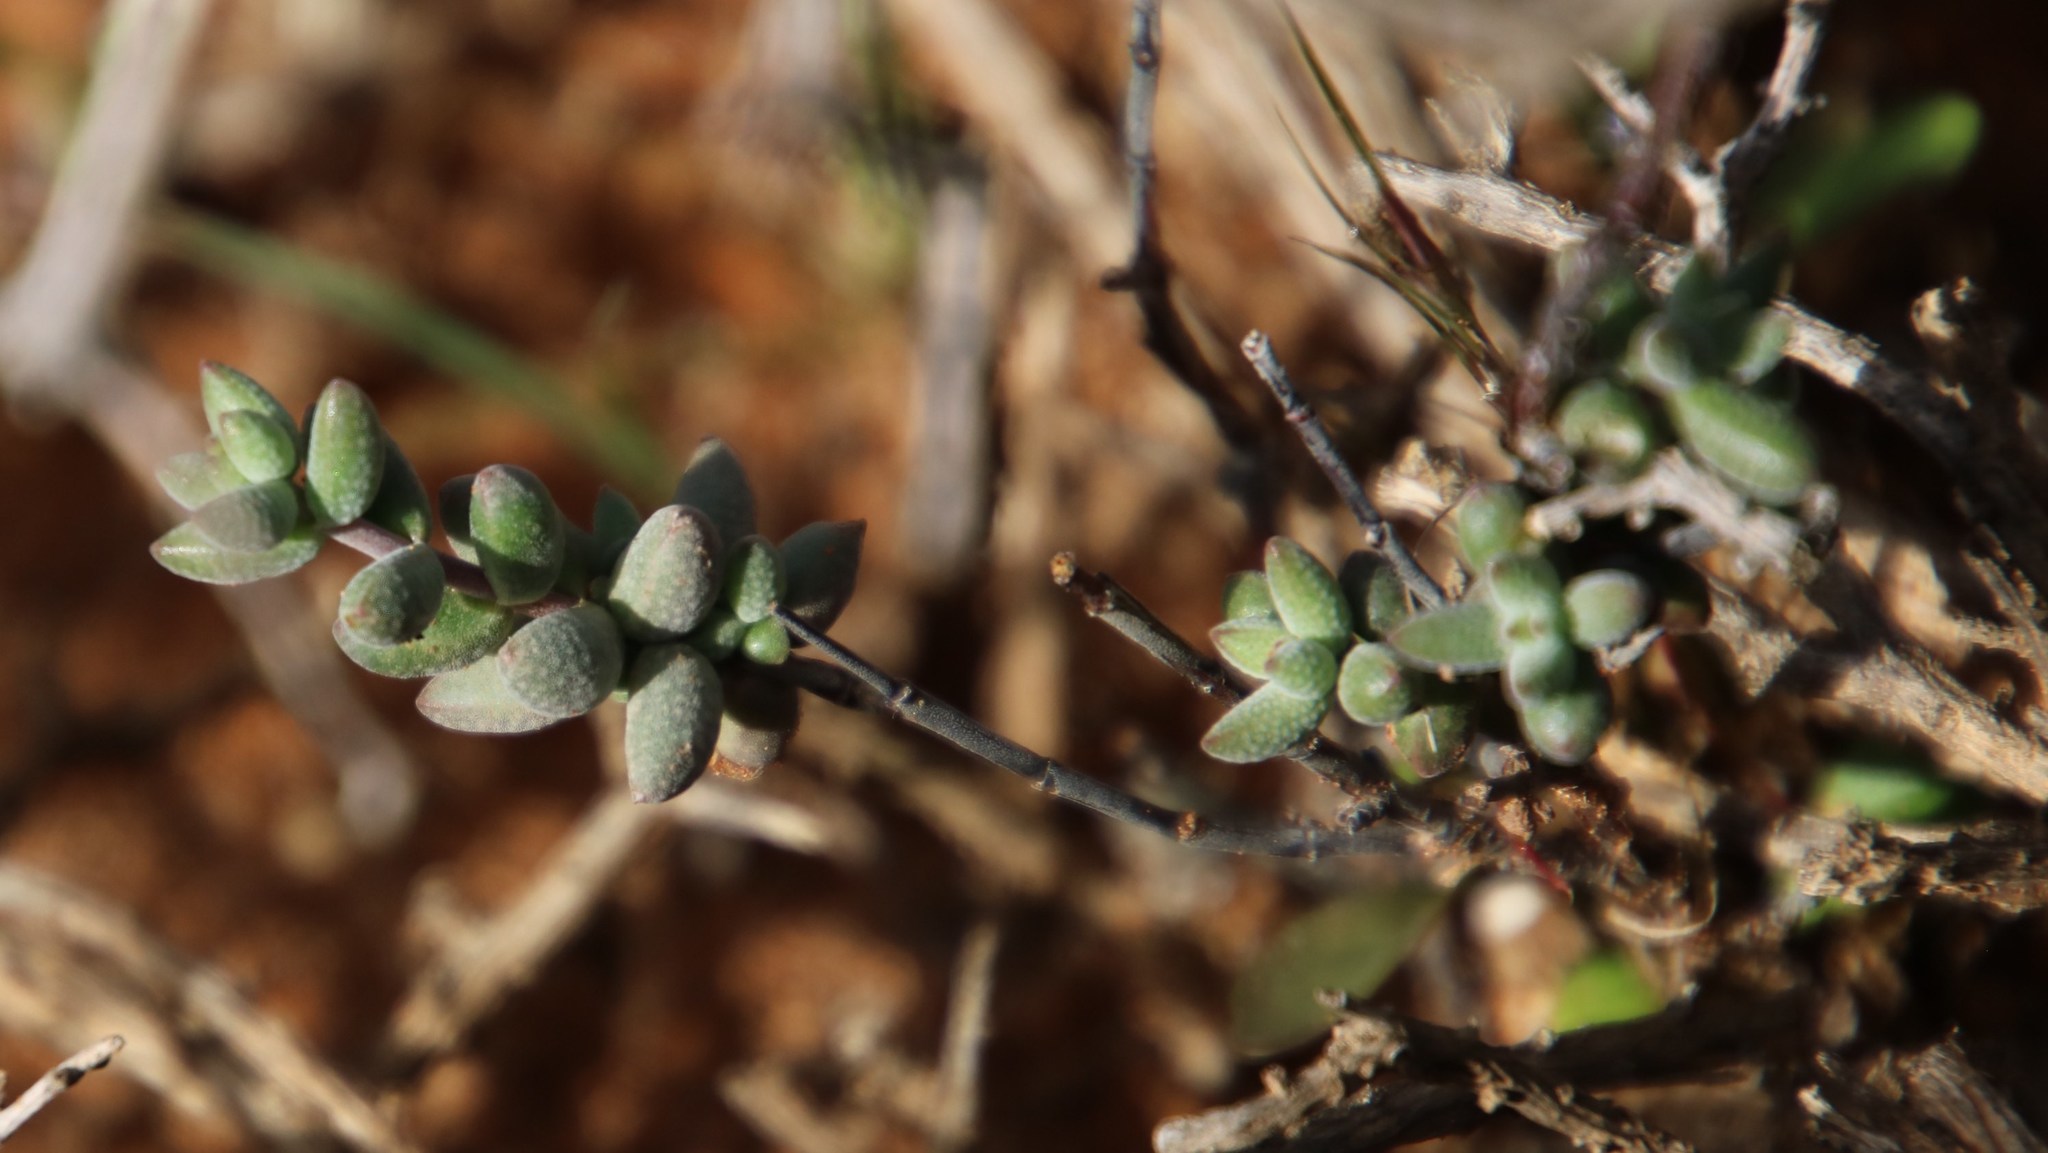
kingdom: Plantae
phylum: Tracheophyta
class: Magnoliopsida
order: Saxifragales
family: Crassulaceae
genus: Crassula
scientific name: Crassula subaphylla
